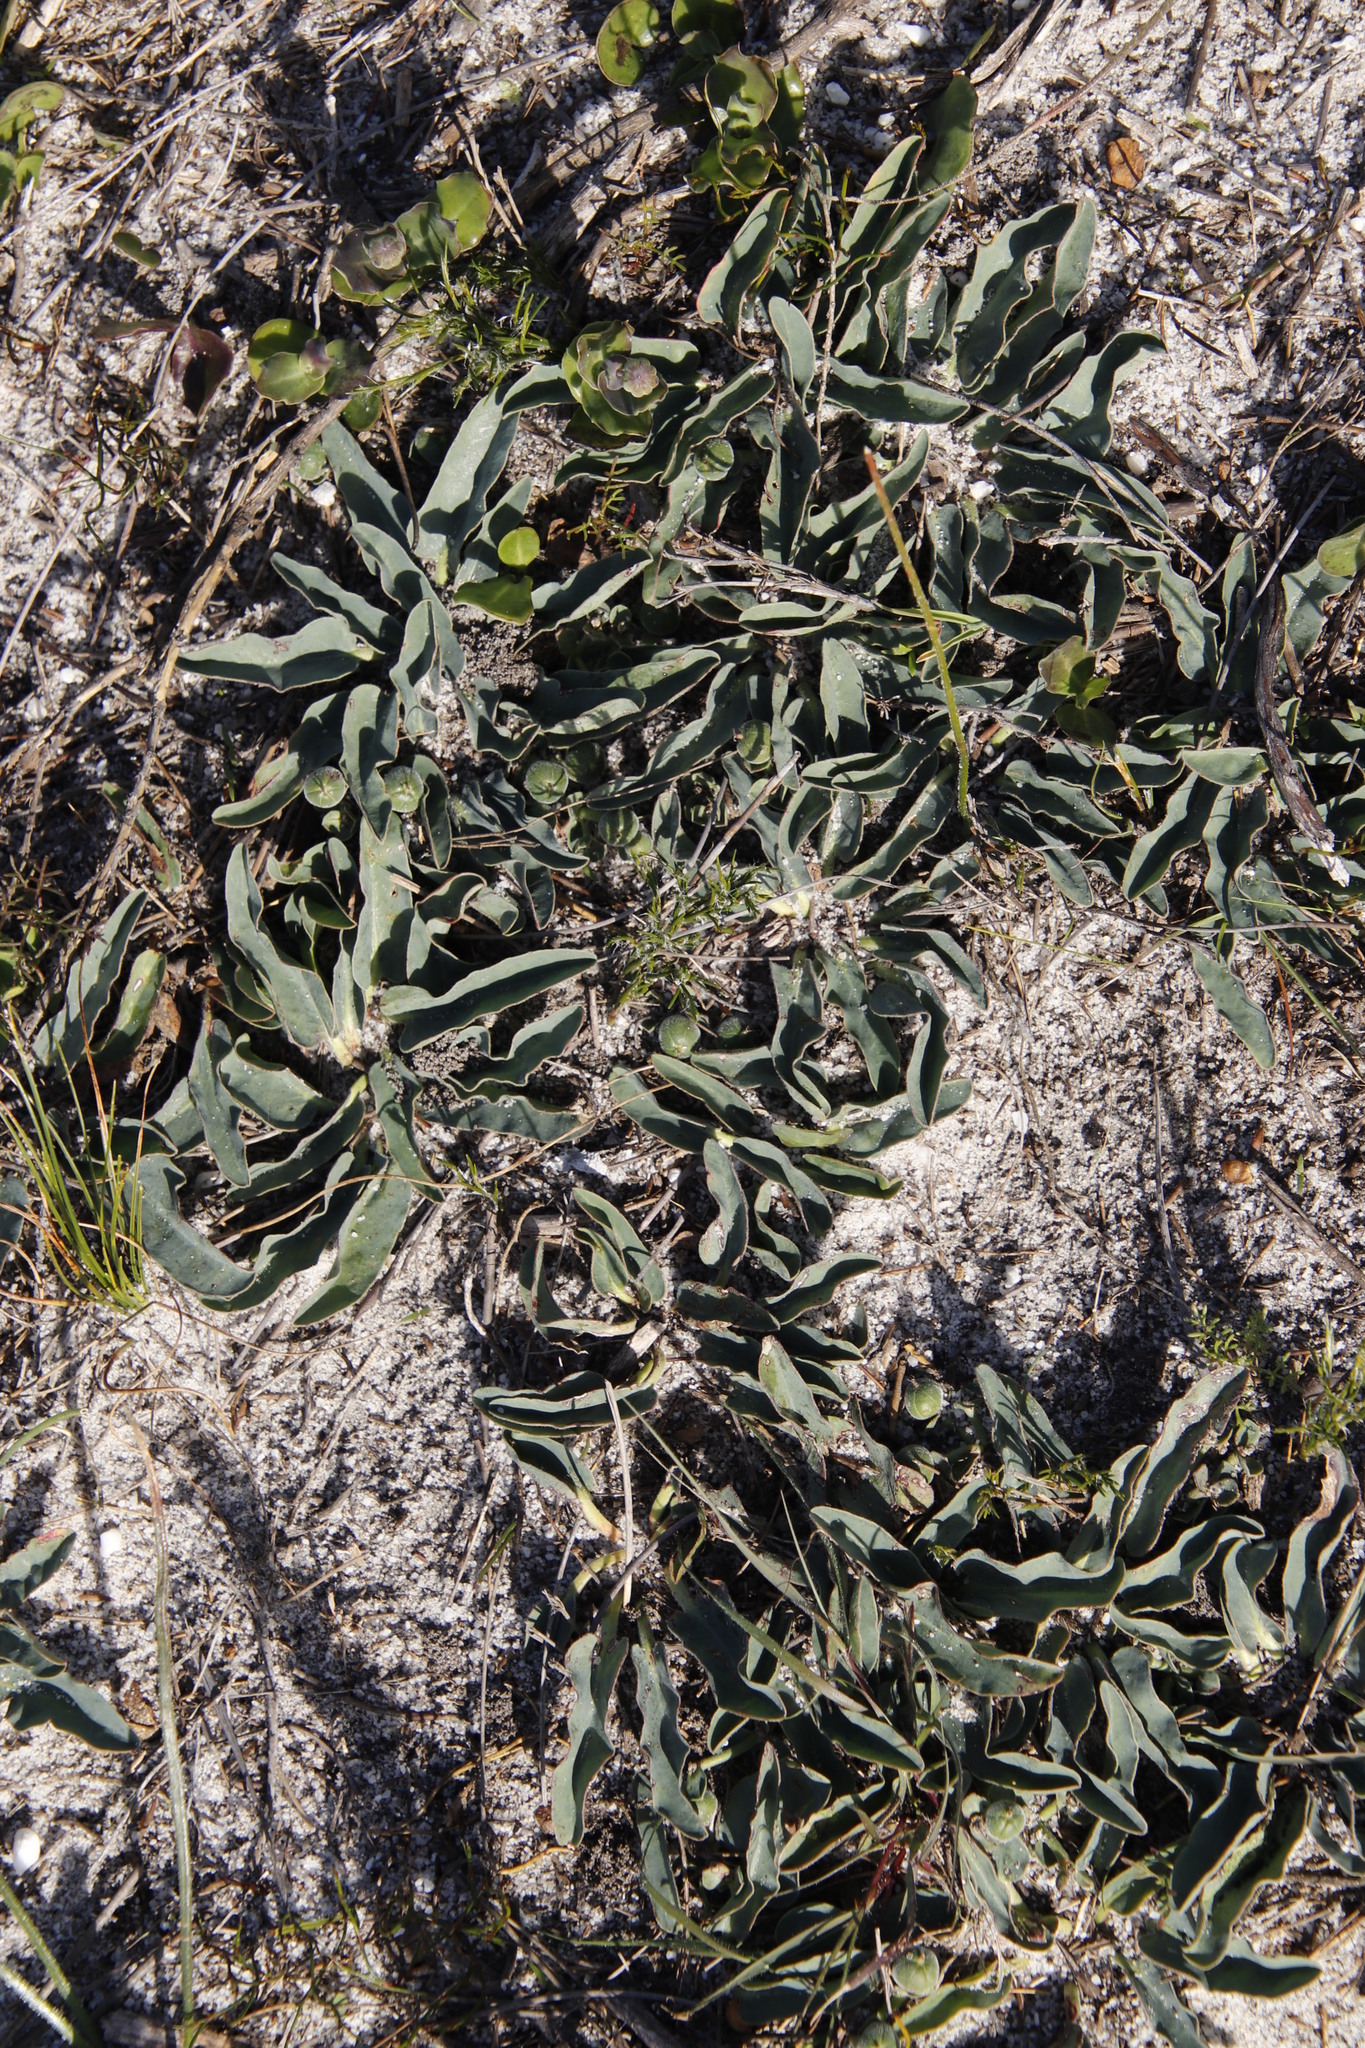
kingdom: Plantae
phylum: Tracheophyta
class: Magnoliopsida
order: Malpighiales
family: Euphorbiaceae
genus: Euphorbia
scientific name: Euphorbia tuberosa
